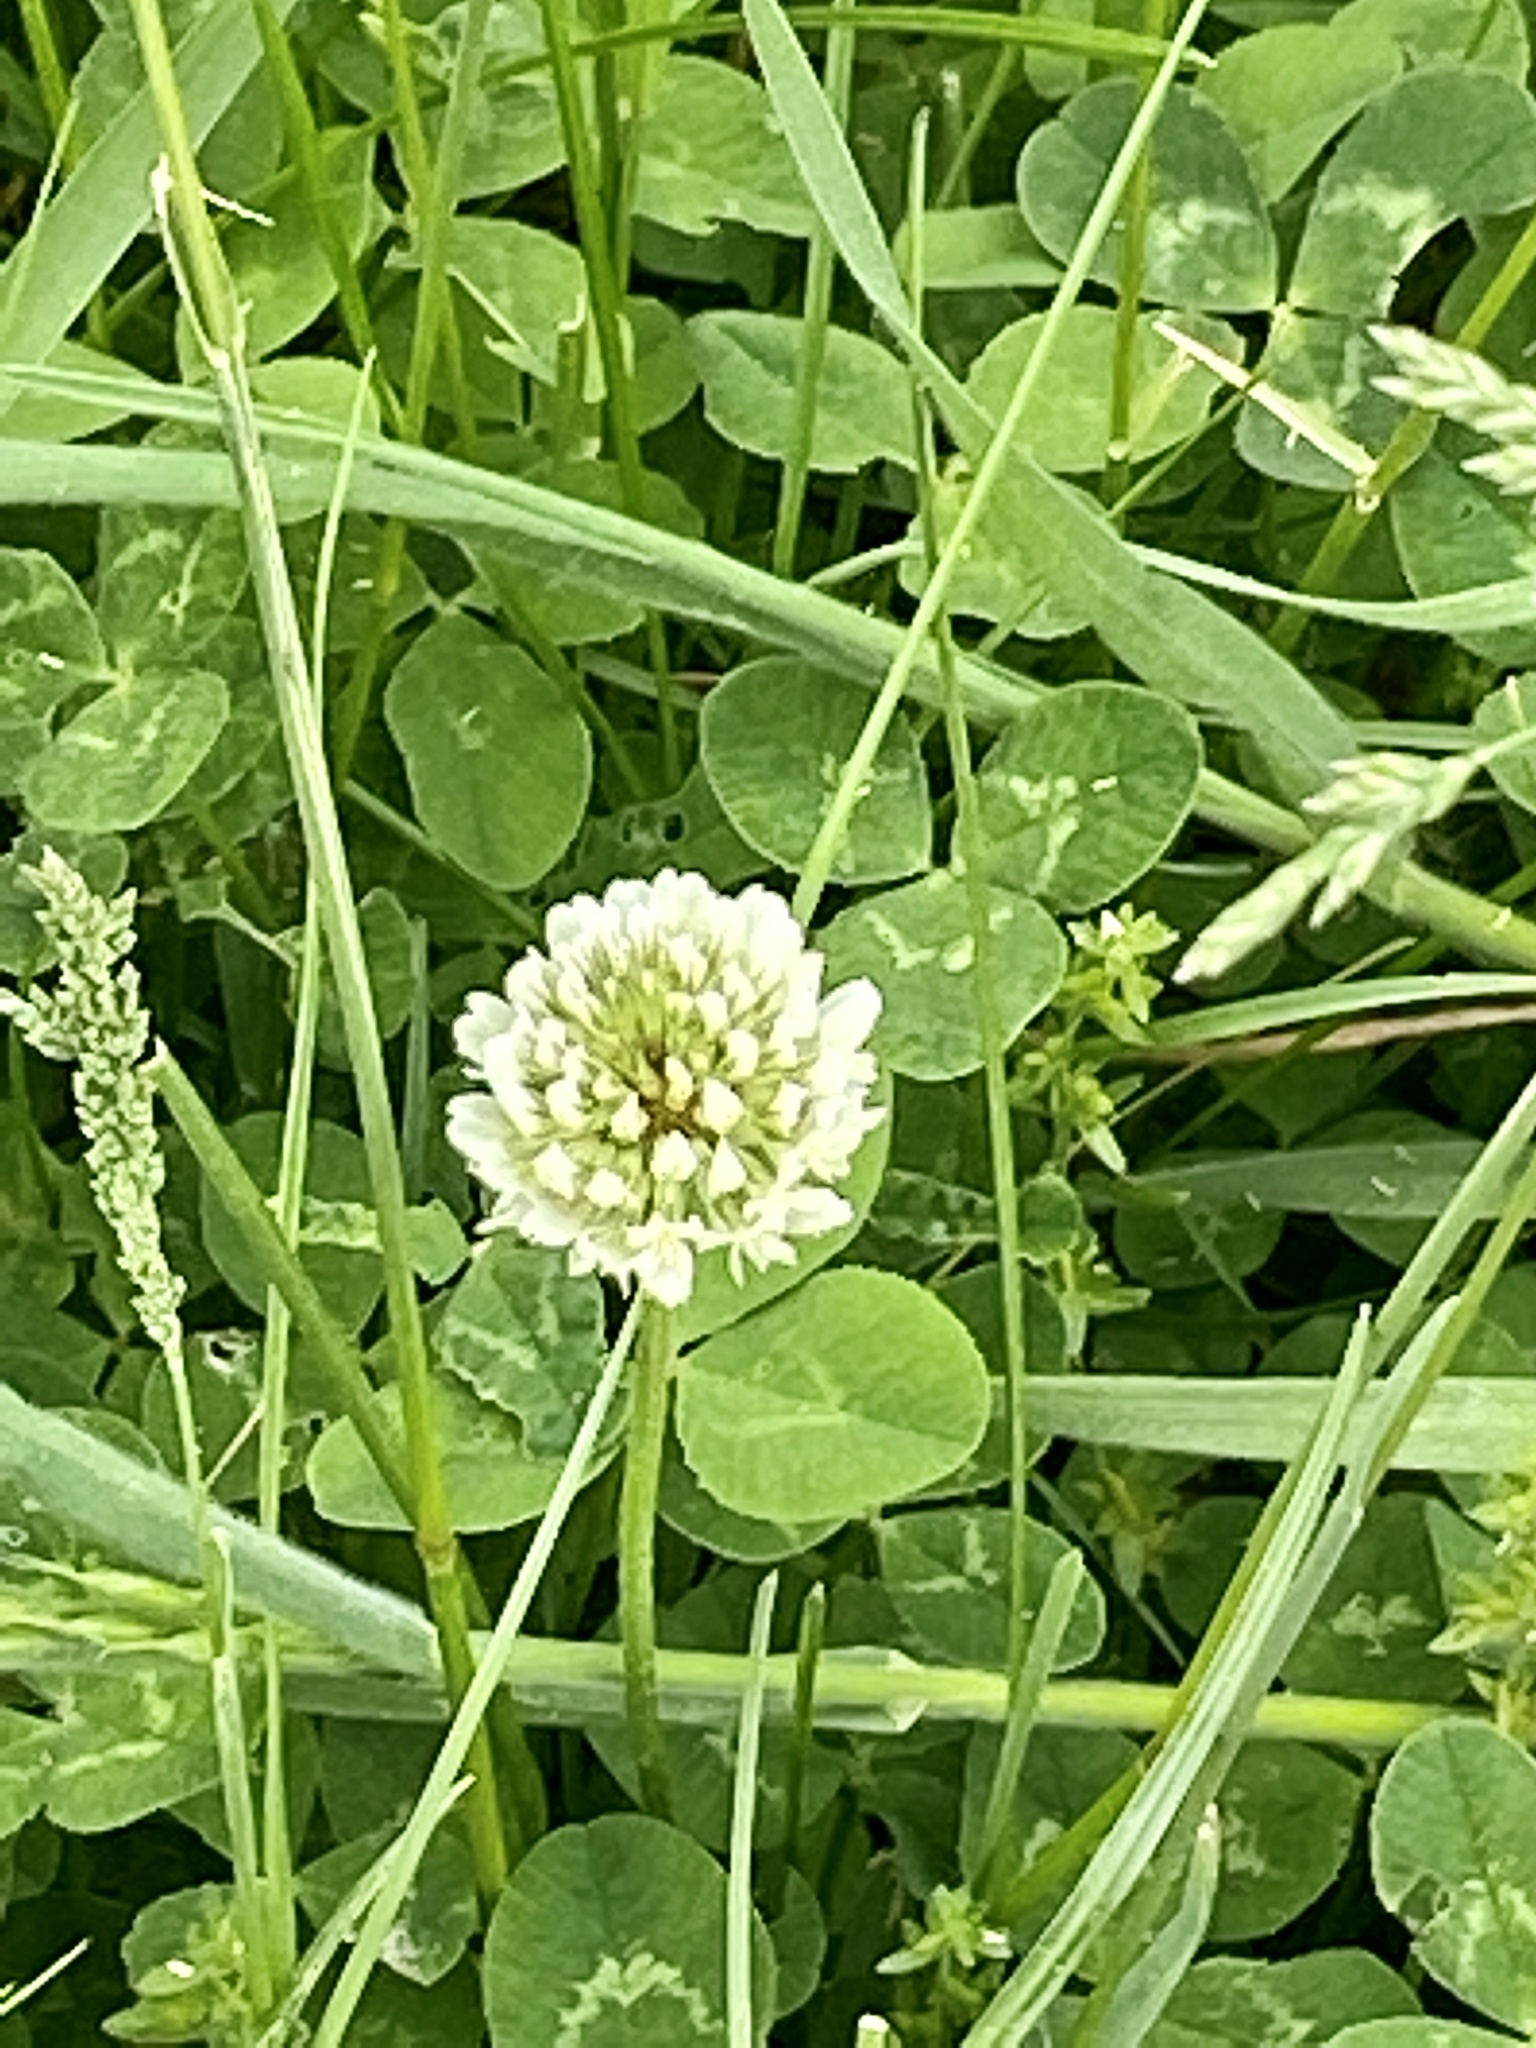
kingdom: Plantae
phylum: Tracheophyta
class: Magnoliopsida
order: Fabales
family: Fabaceae
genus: Trifolium
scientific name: Trifolium repens
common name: White clover
